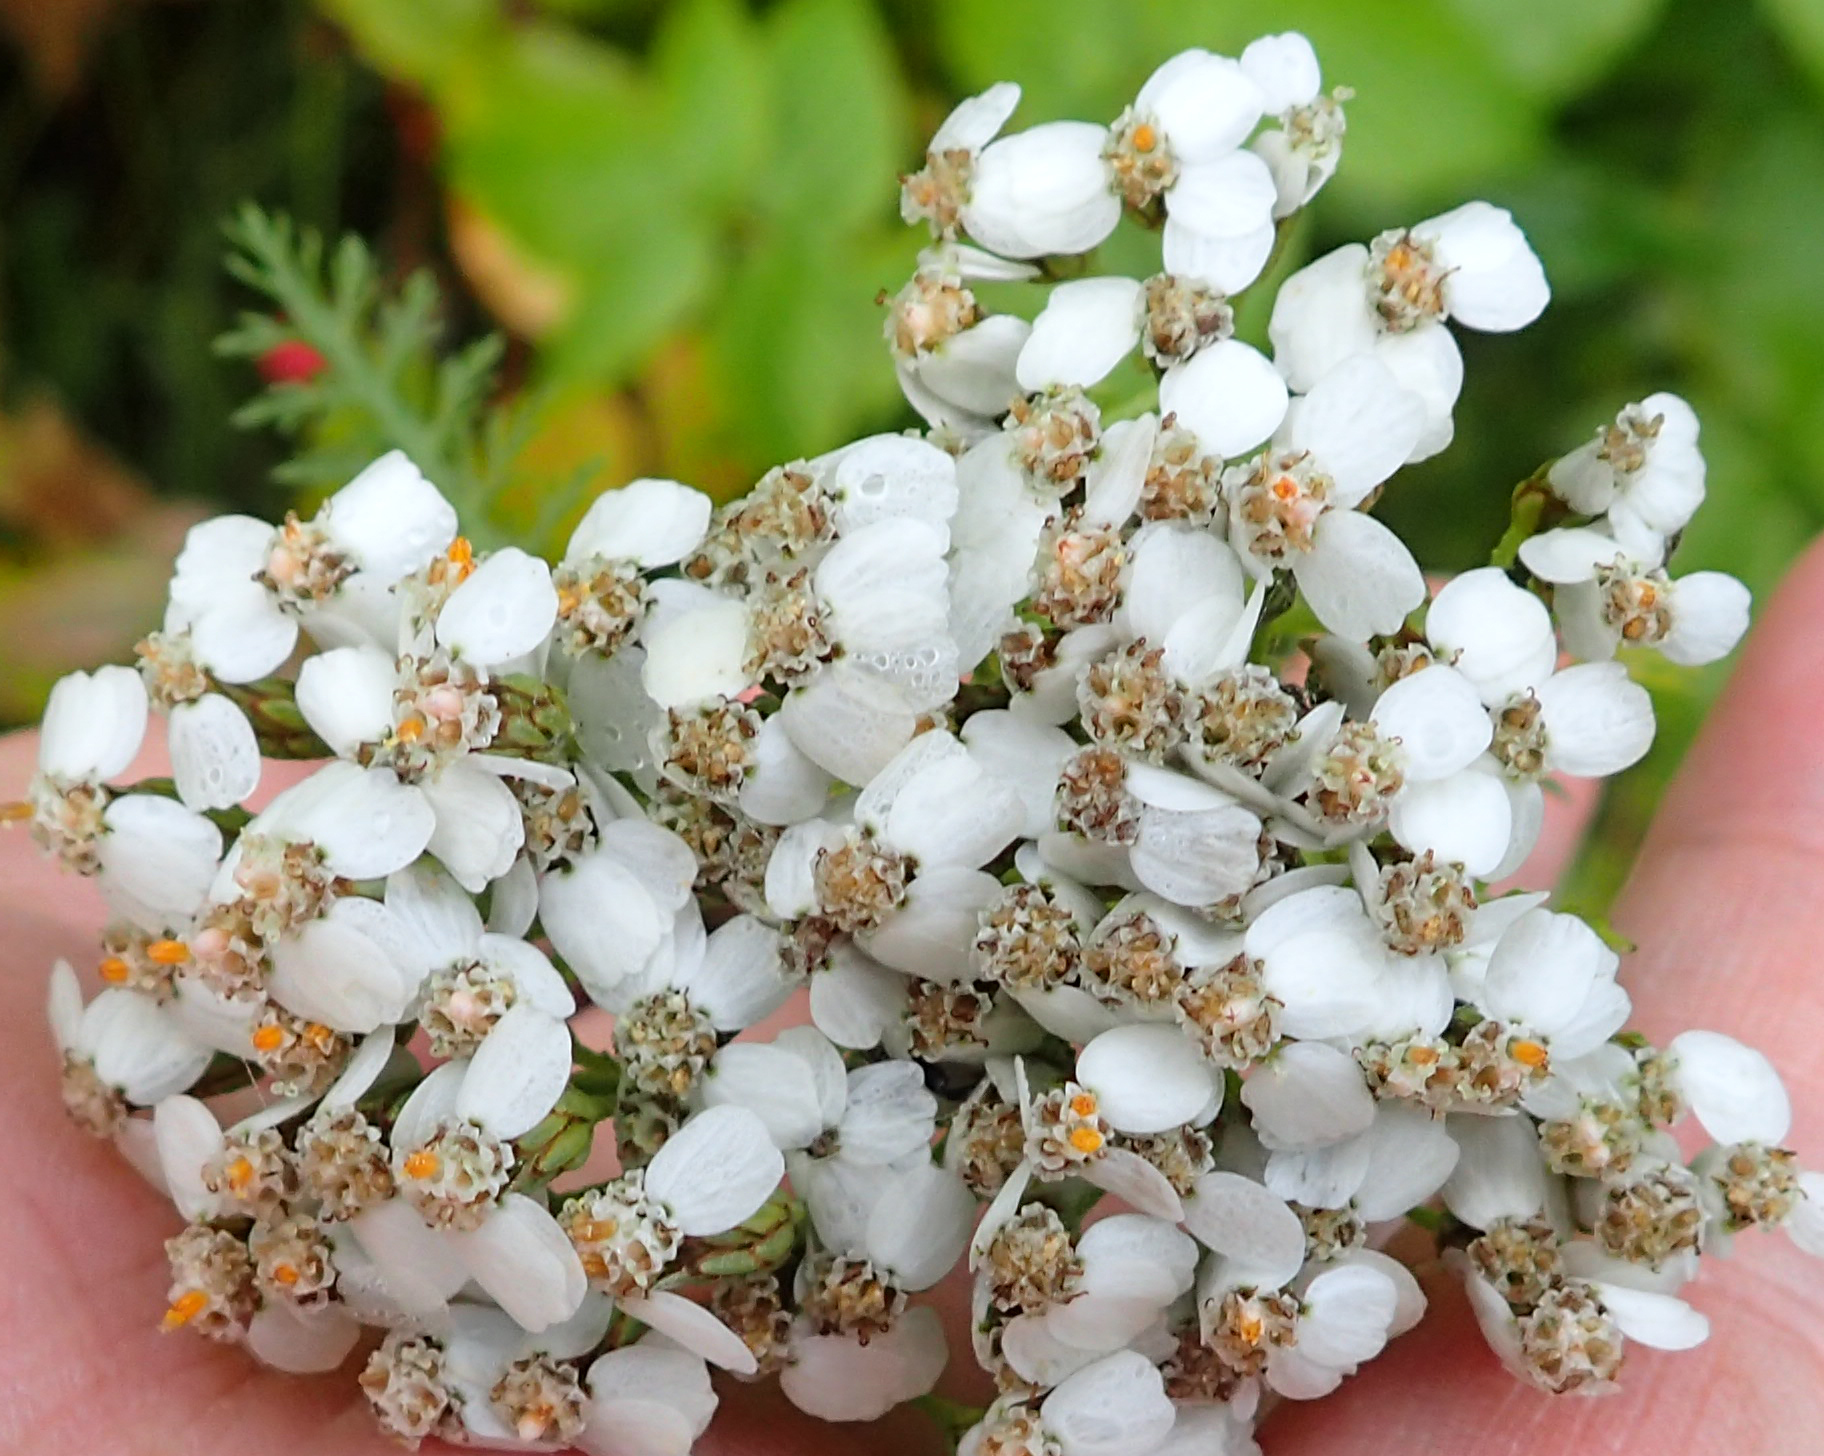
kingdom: Plantae
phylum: Tracheophyta
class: Magnoliopsida
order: Asterales
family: Asteraceae
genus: Achillea
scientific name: Achillea millefolium
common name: Yarrow
